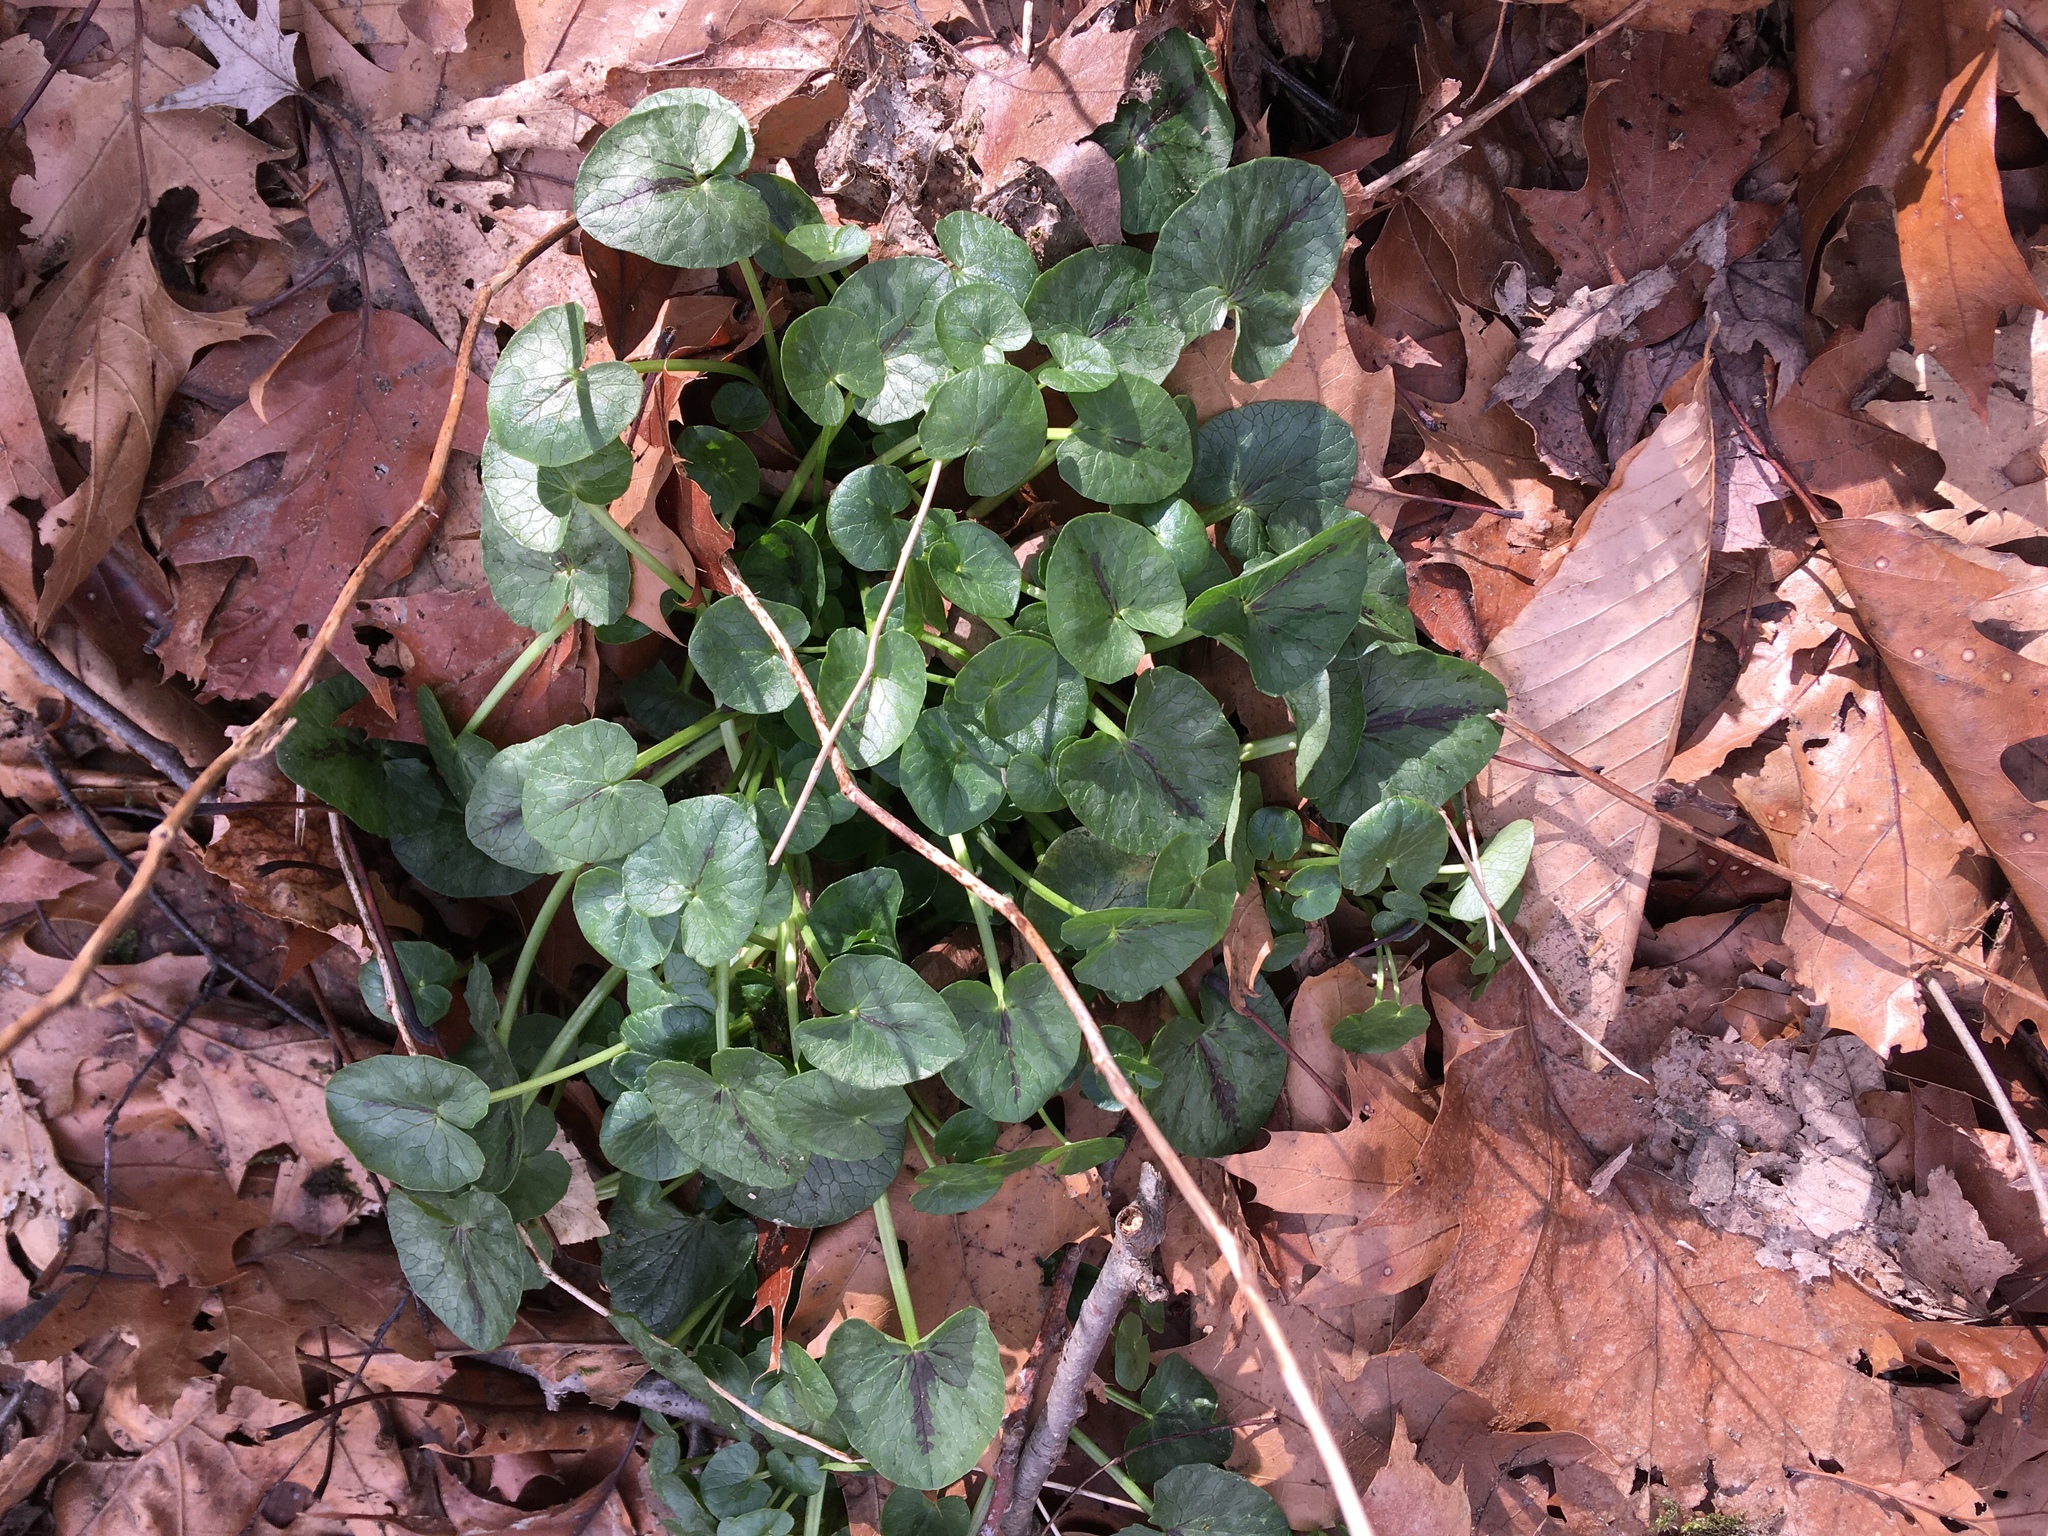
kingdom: Plantae
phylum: Tracheophyta
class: Magnoliopsida
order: Ranunculales
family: Ranunculaceae
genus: Ficaria
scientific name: Ficaria verna
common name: Lesser celandine
